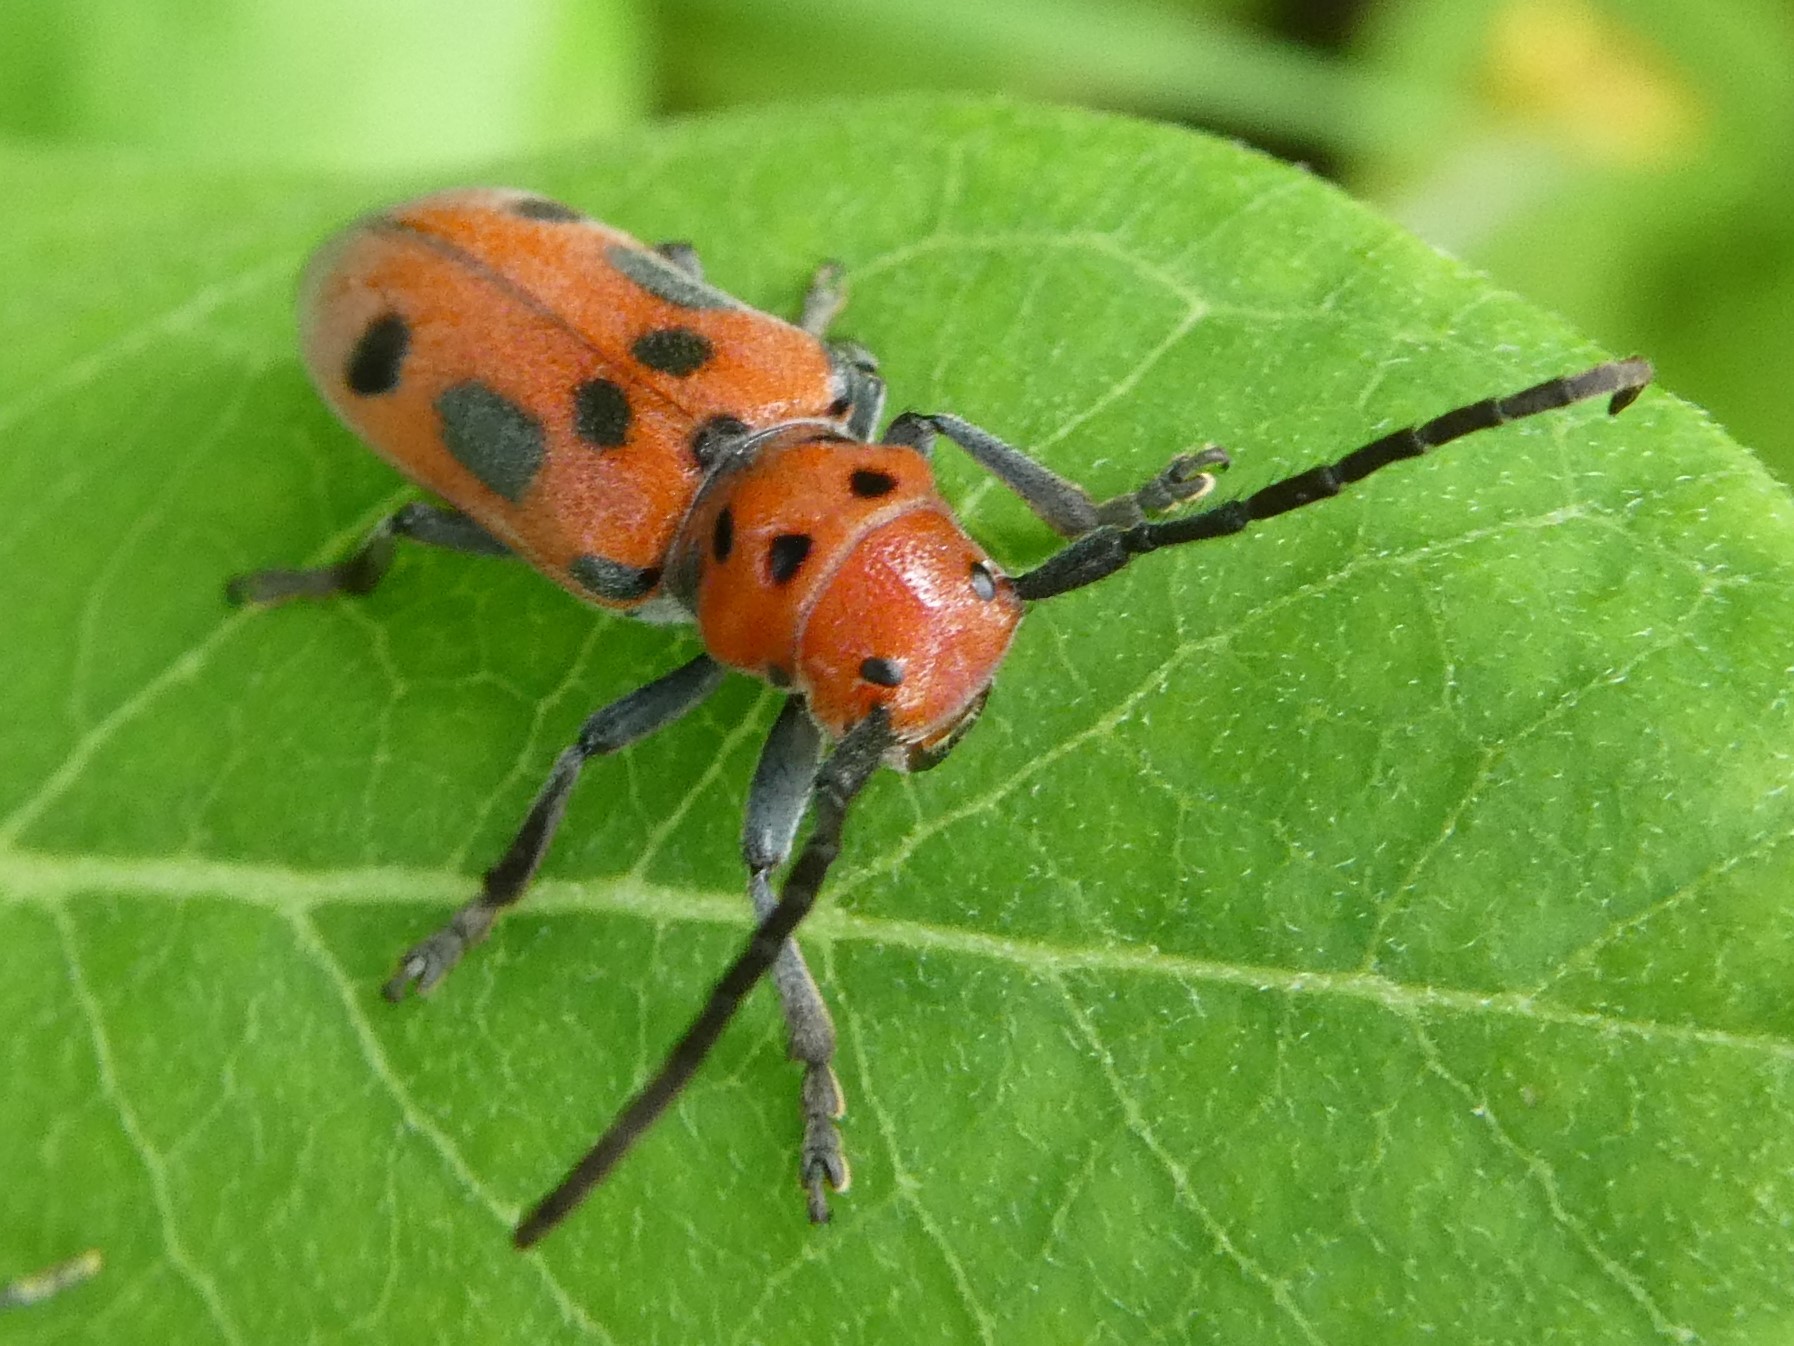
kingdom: Animalia
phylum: Arthropoda
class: Insecta
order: Coleoptera
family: Cerambycidae
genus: Tetraopes
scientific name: Tetraopes tetrophthalmus
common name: Red milkweed beetle
